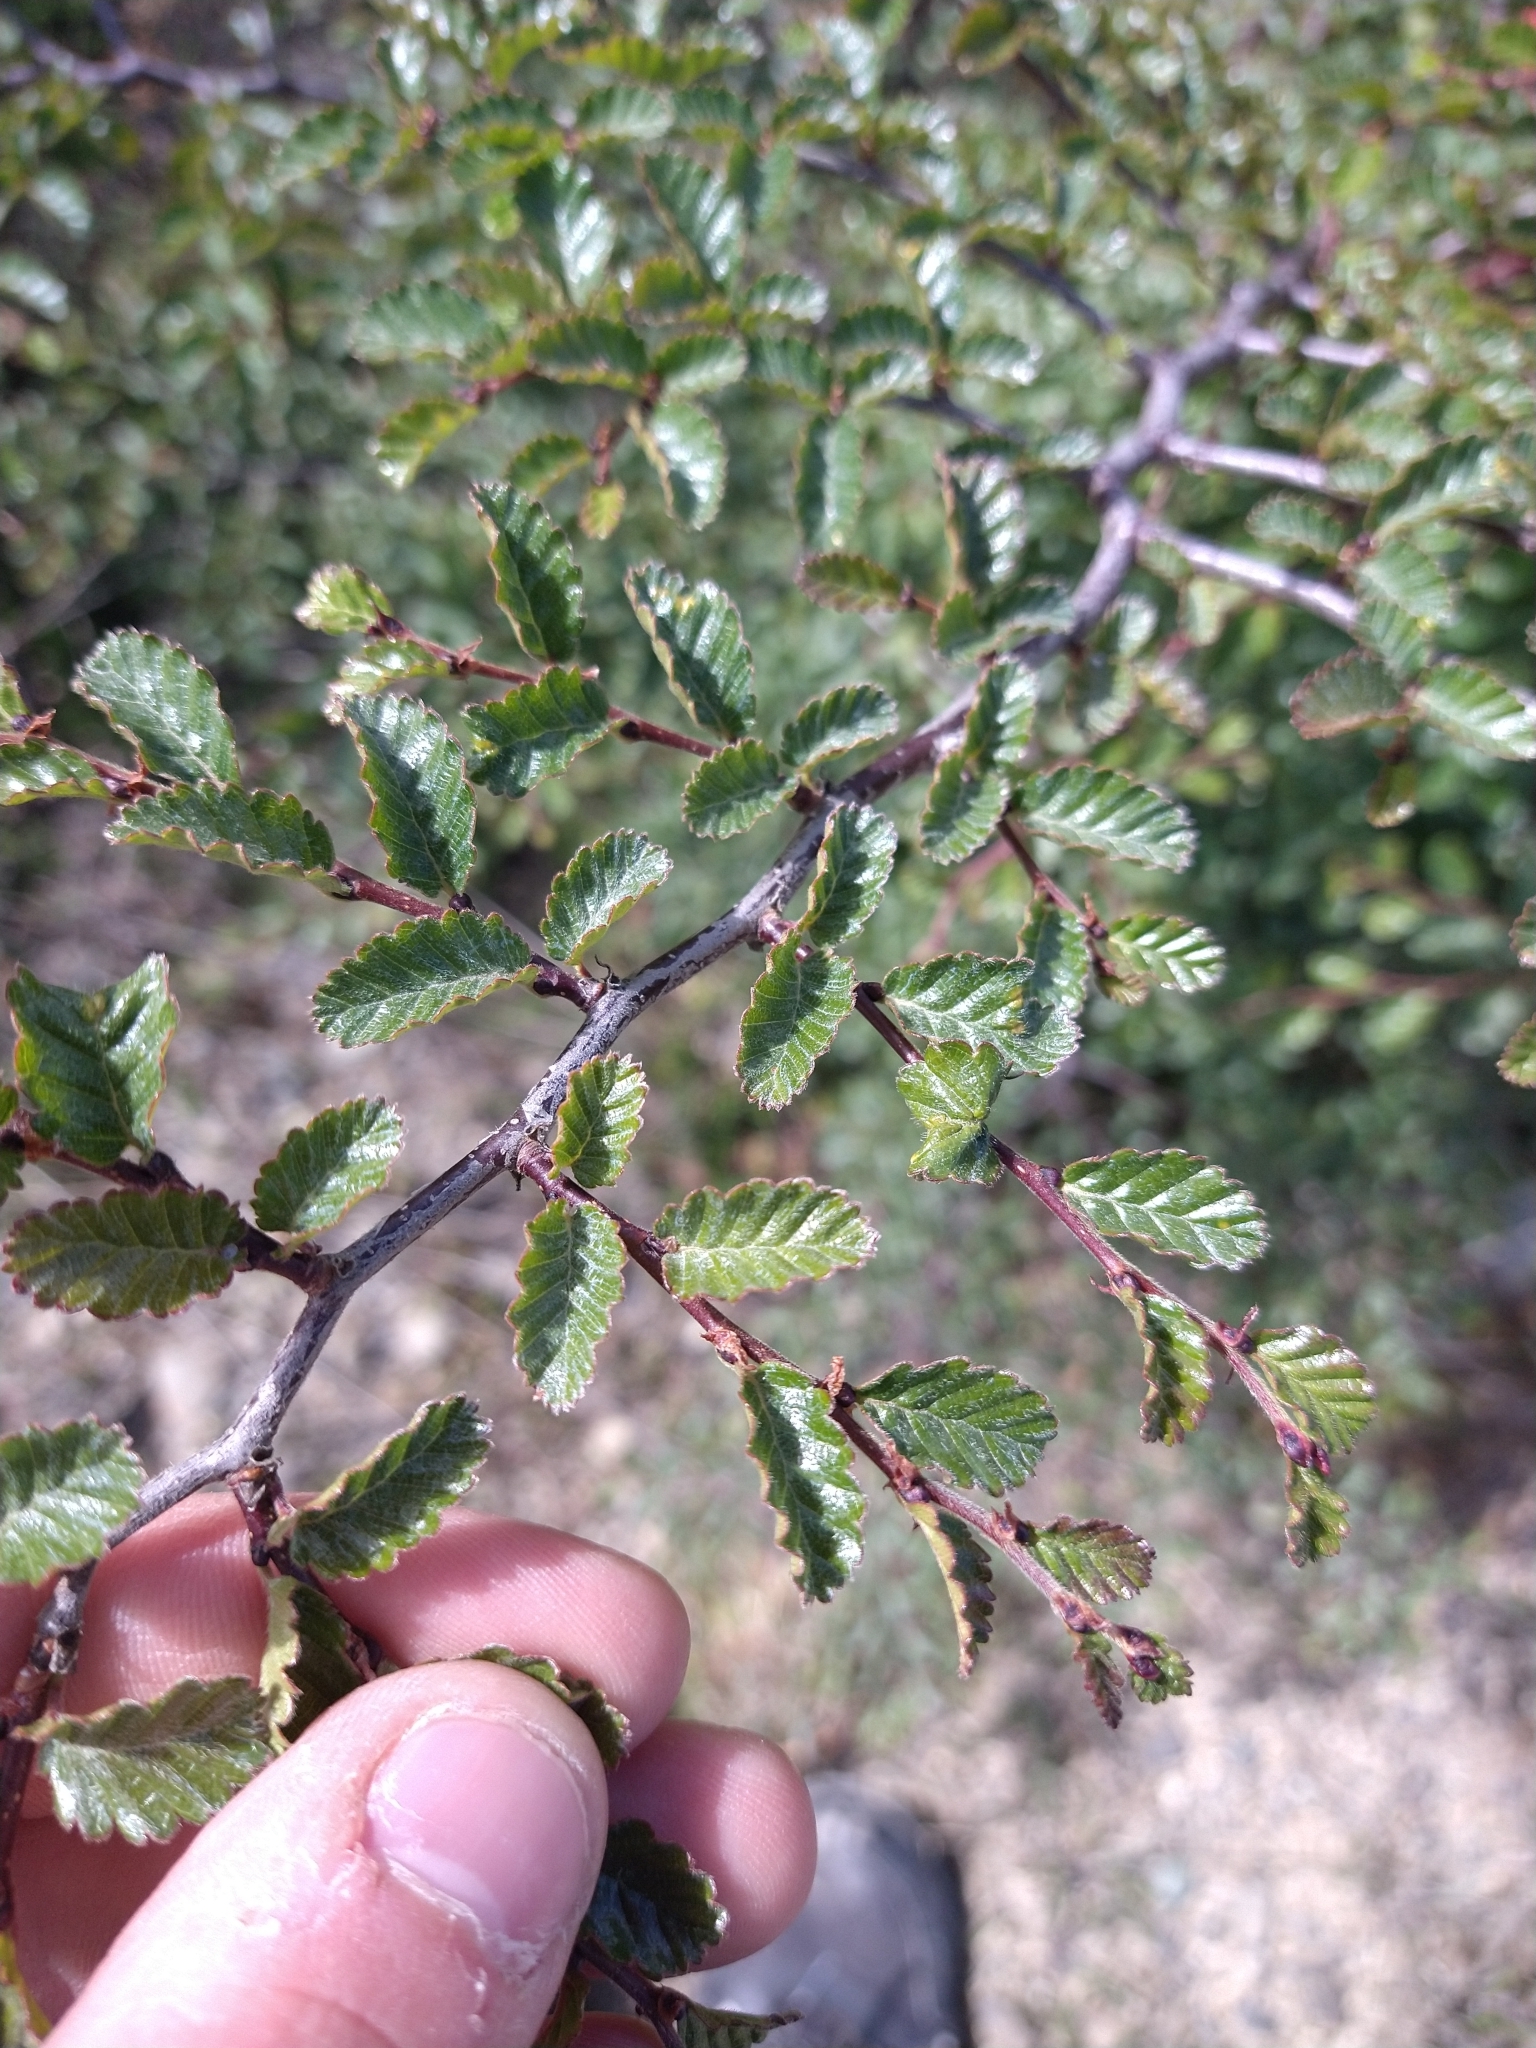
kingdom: Plantae
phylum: Tracheophyta
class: Magnoliopsida
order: Fagales
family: Nothofagaceae
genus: Nothofagus
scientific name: Nothofagus pumilio
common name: Lenga beech
